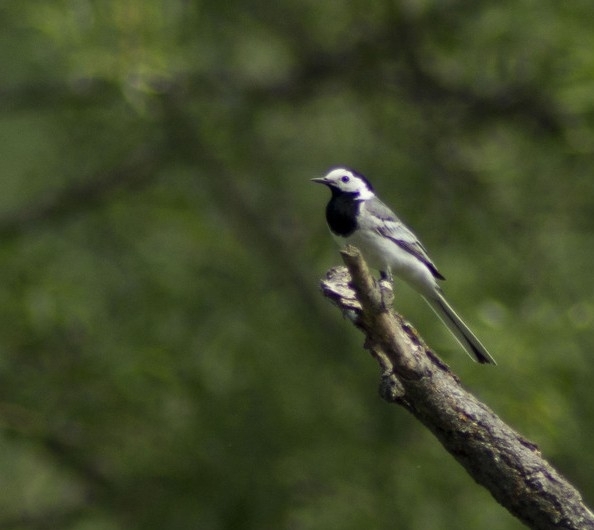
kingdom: Animalia
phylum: Chordata
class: Aves
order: Passeriformes
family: Motacillidae
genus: Motacilla
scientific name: Motacilla alba
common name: White wagtail
